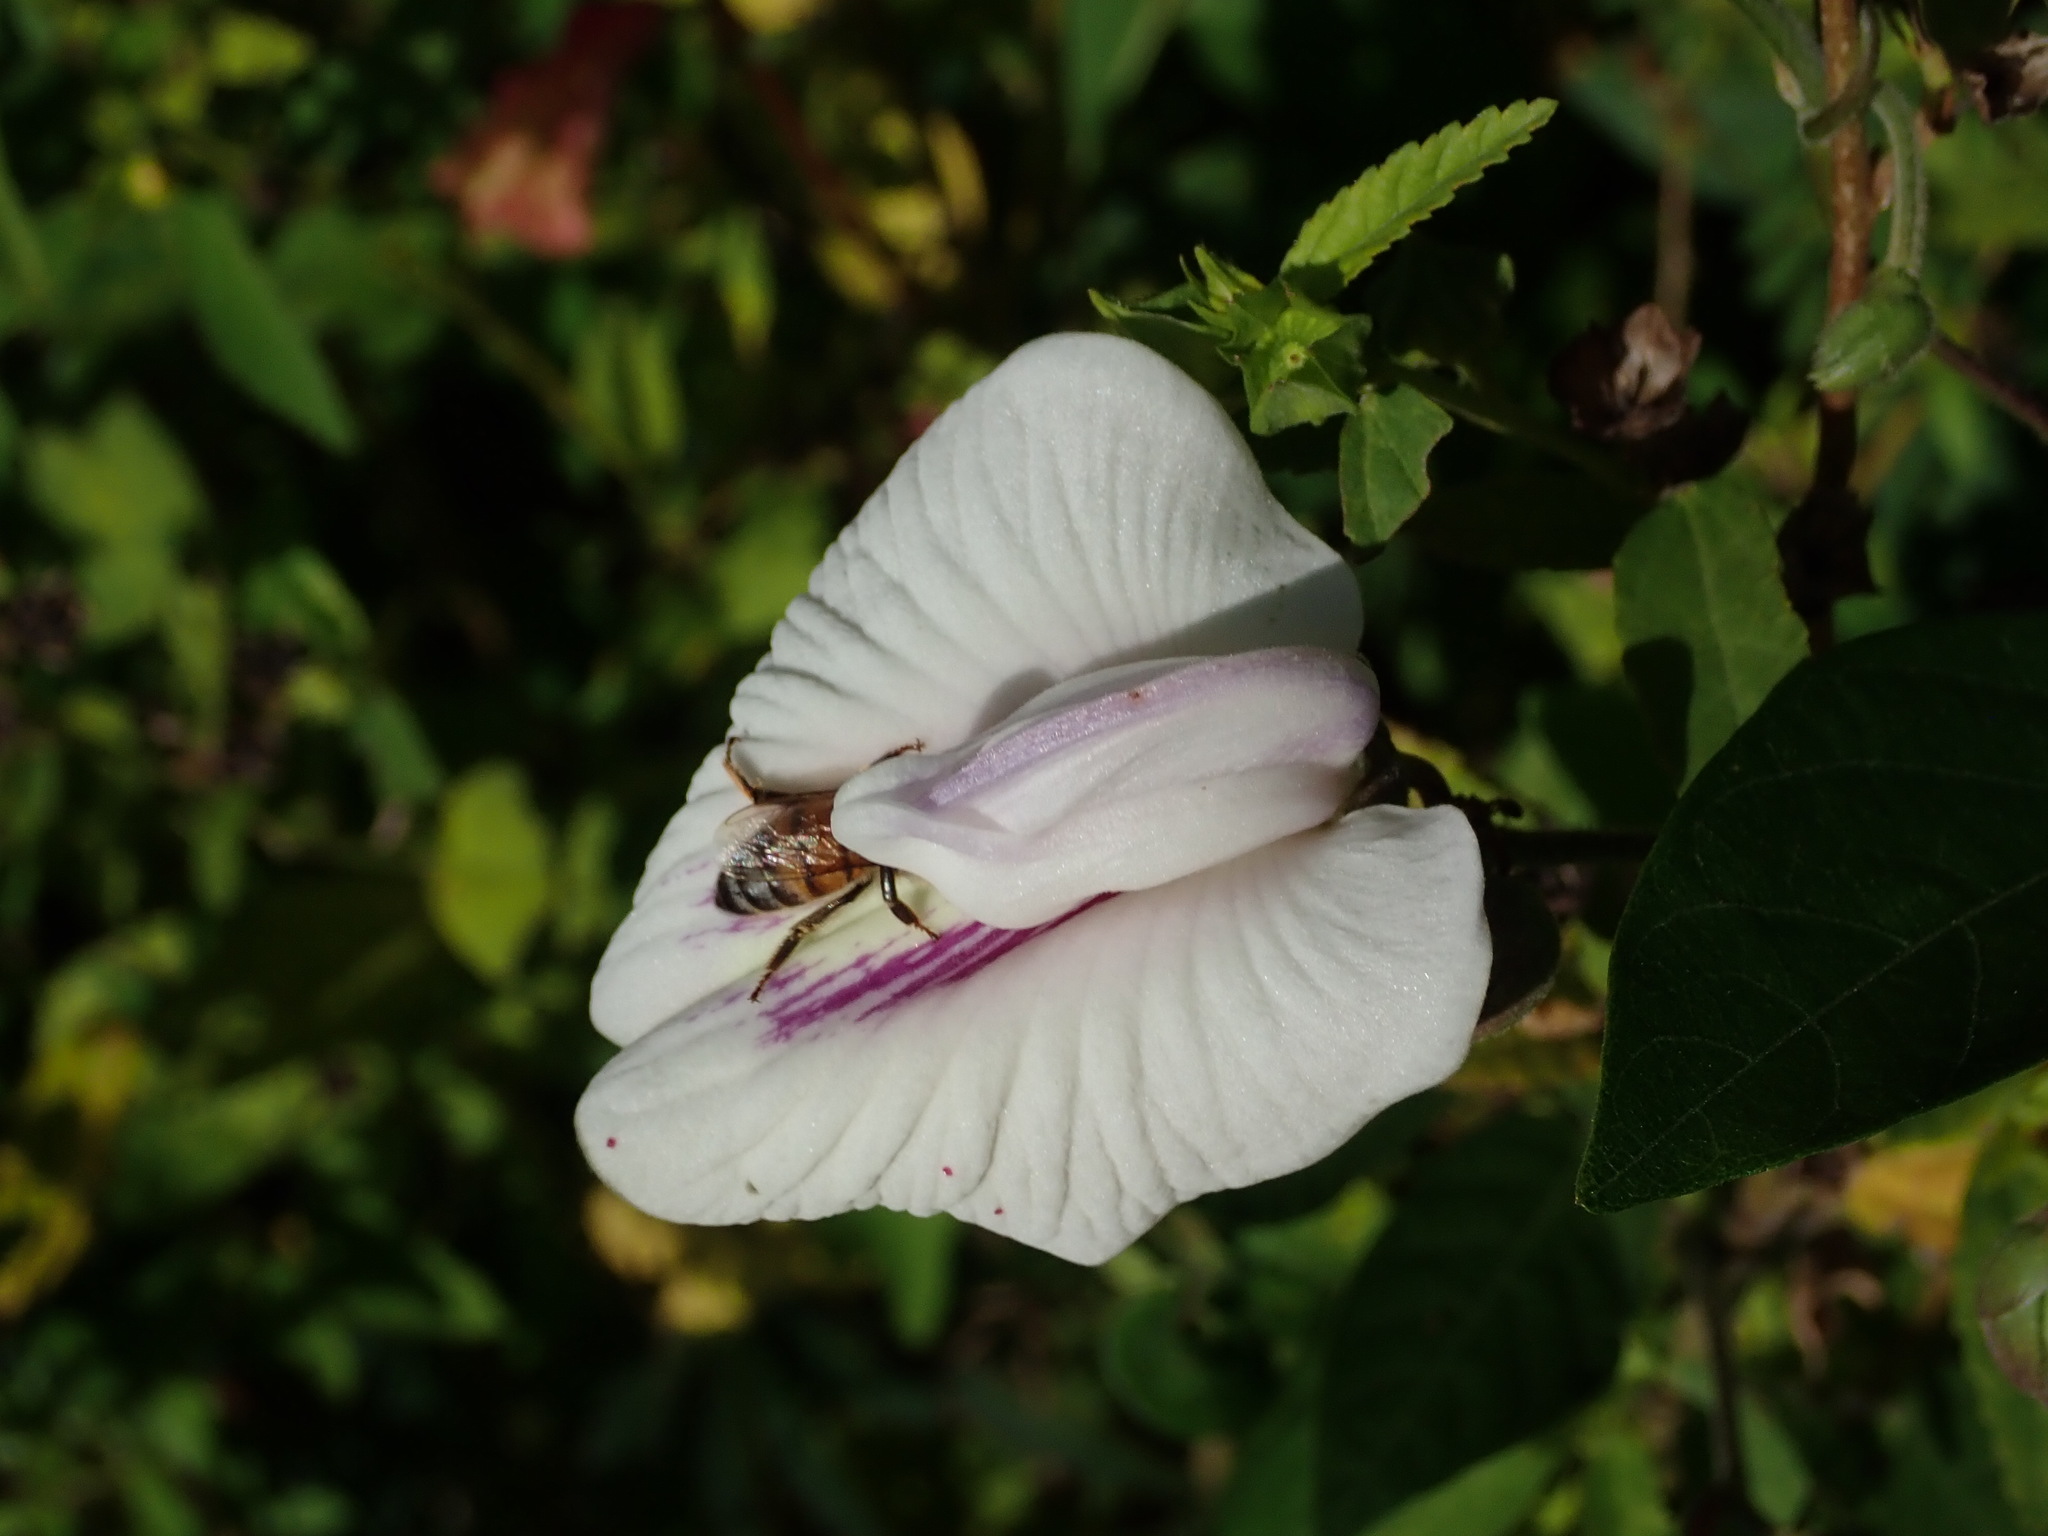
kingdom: Plantae
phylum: Tracheophyta
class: Magnoliopsida
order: Fabales
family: Fabaceae
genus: Centrosema
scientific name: Centrosema virginianum
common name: Butterfly-pea
